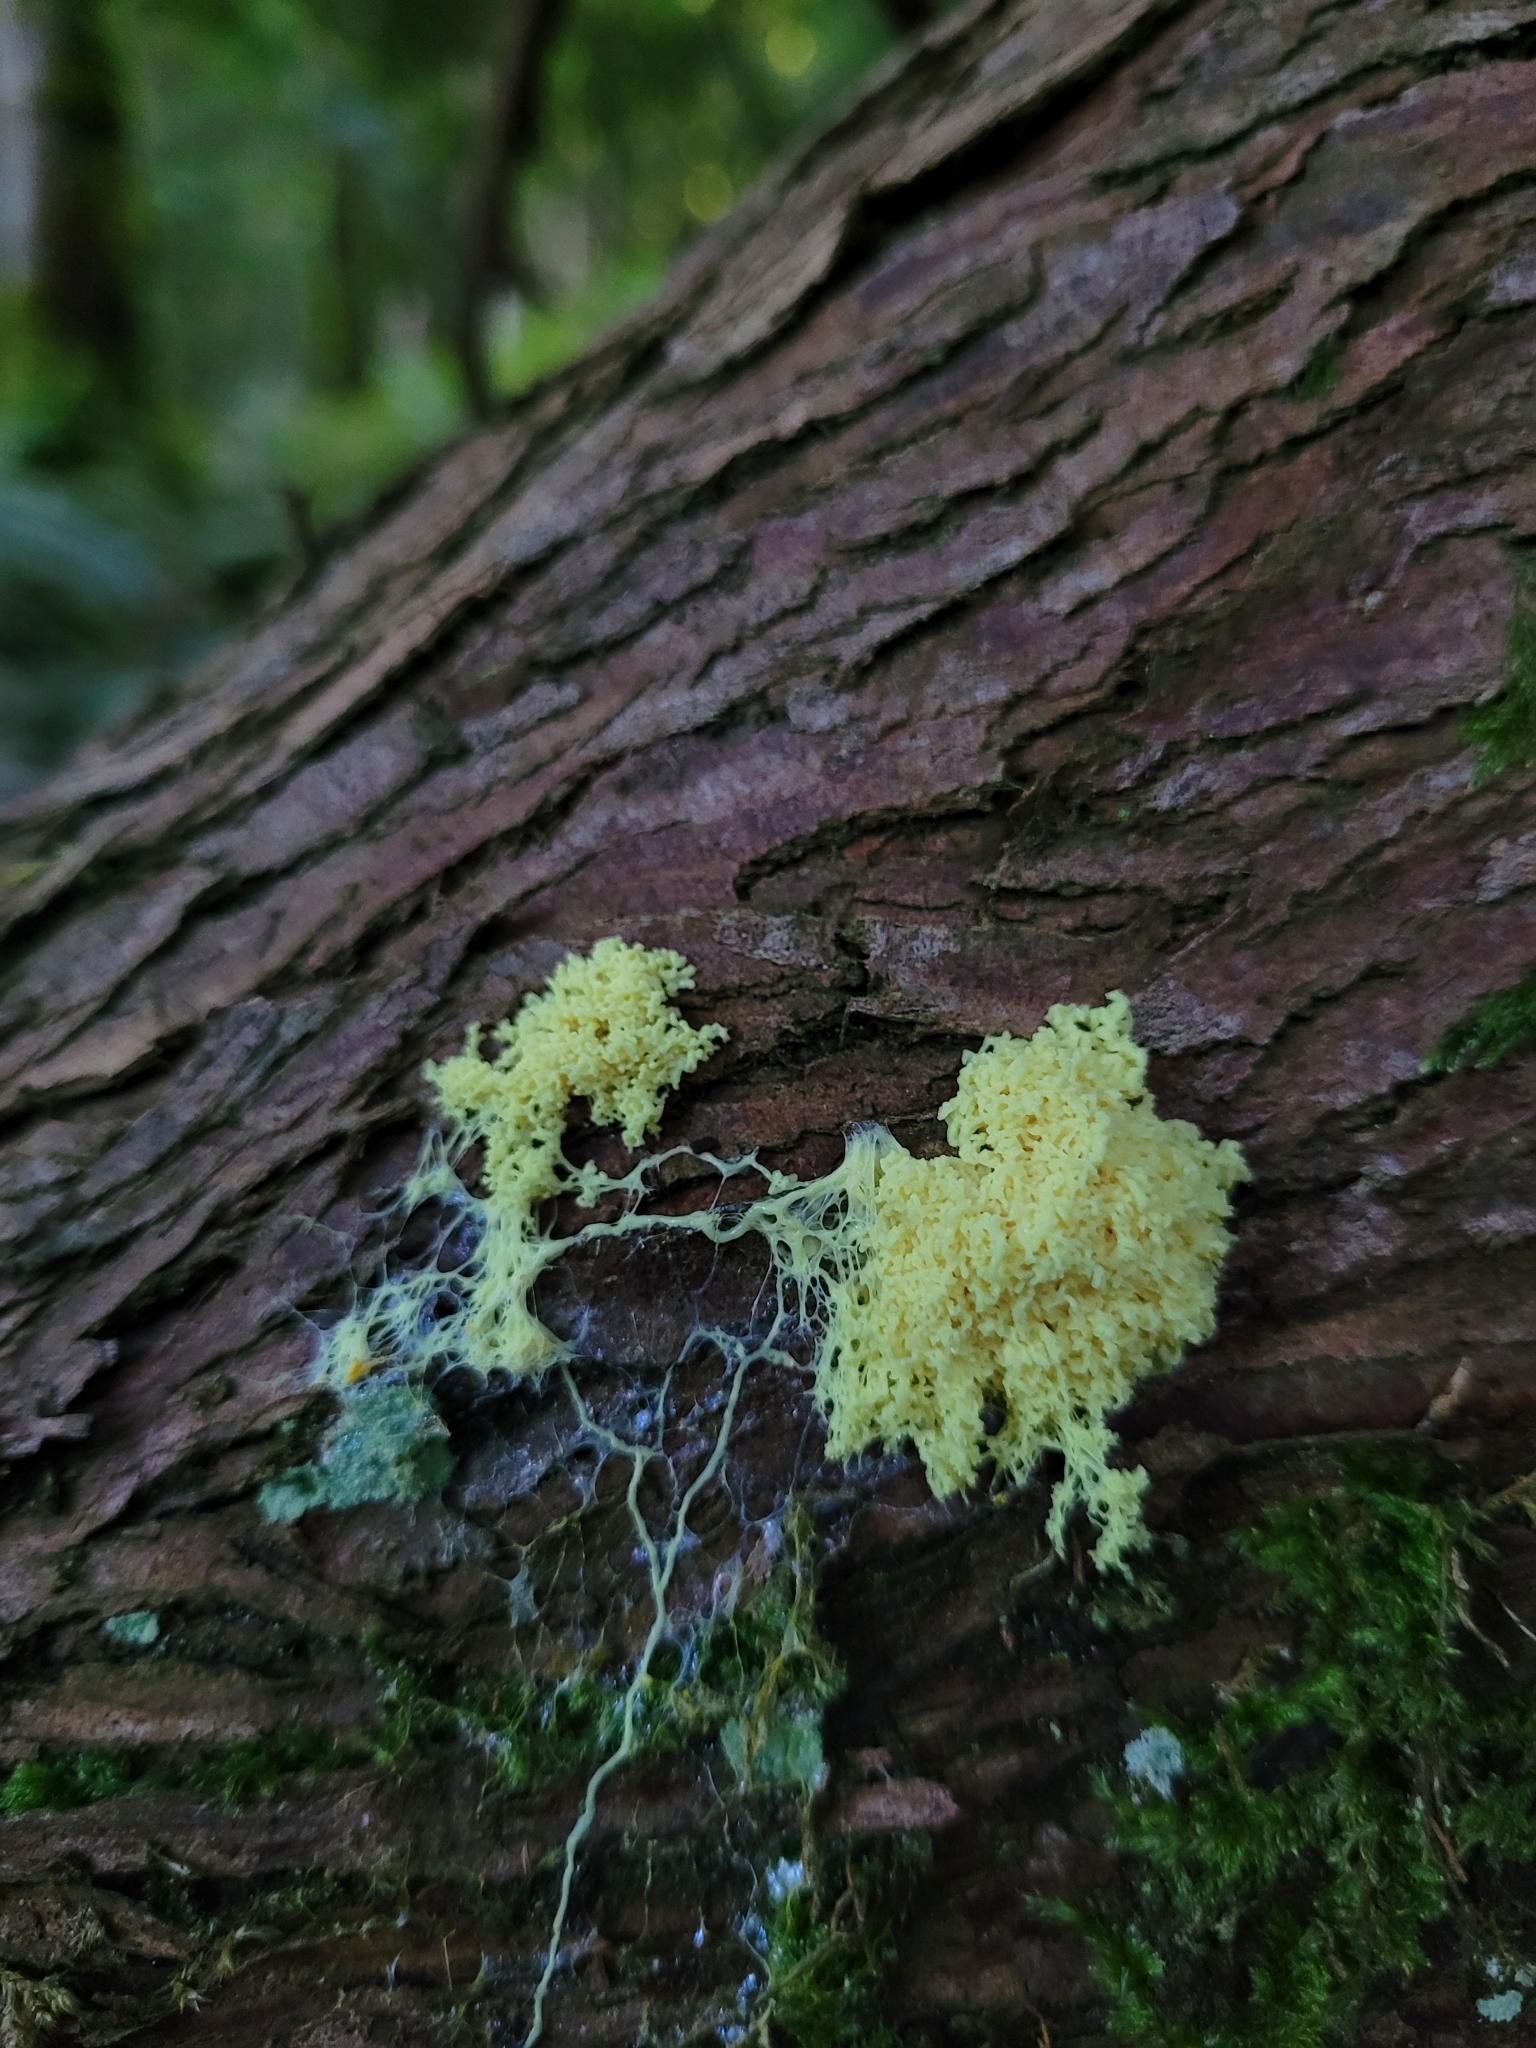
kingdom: Protozoa
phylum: Mycetozoa
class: Myxomycetes
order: Physarales
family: Physaraceae
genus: Fuligo
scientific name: Fuligo septica
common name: Dog vomit slime mold
